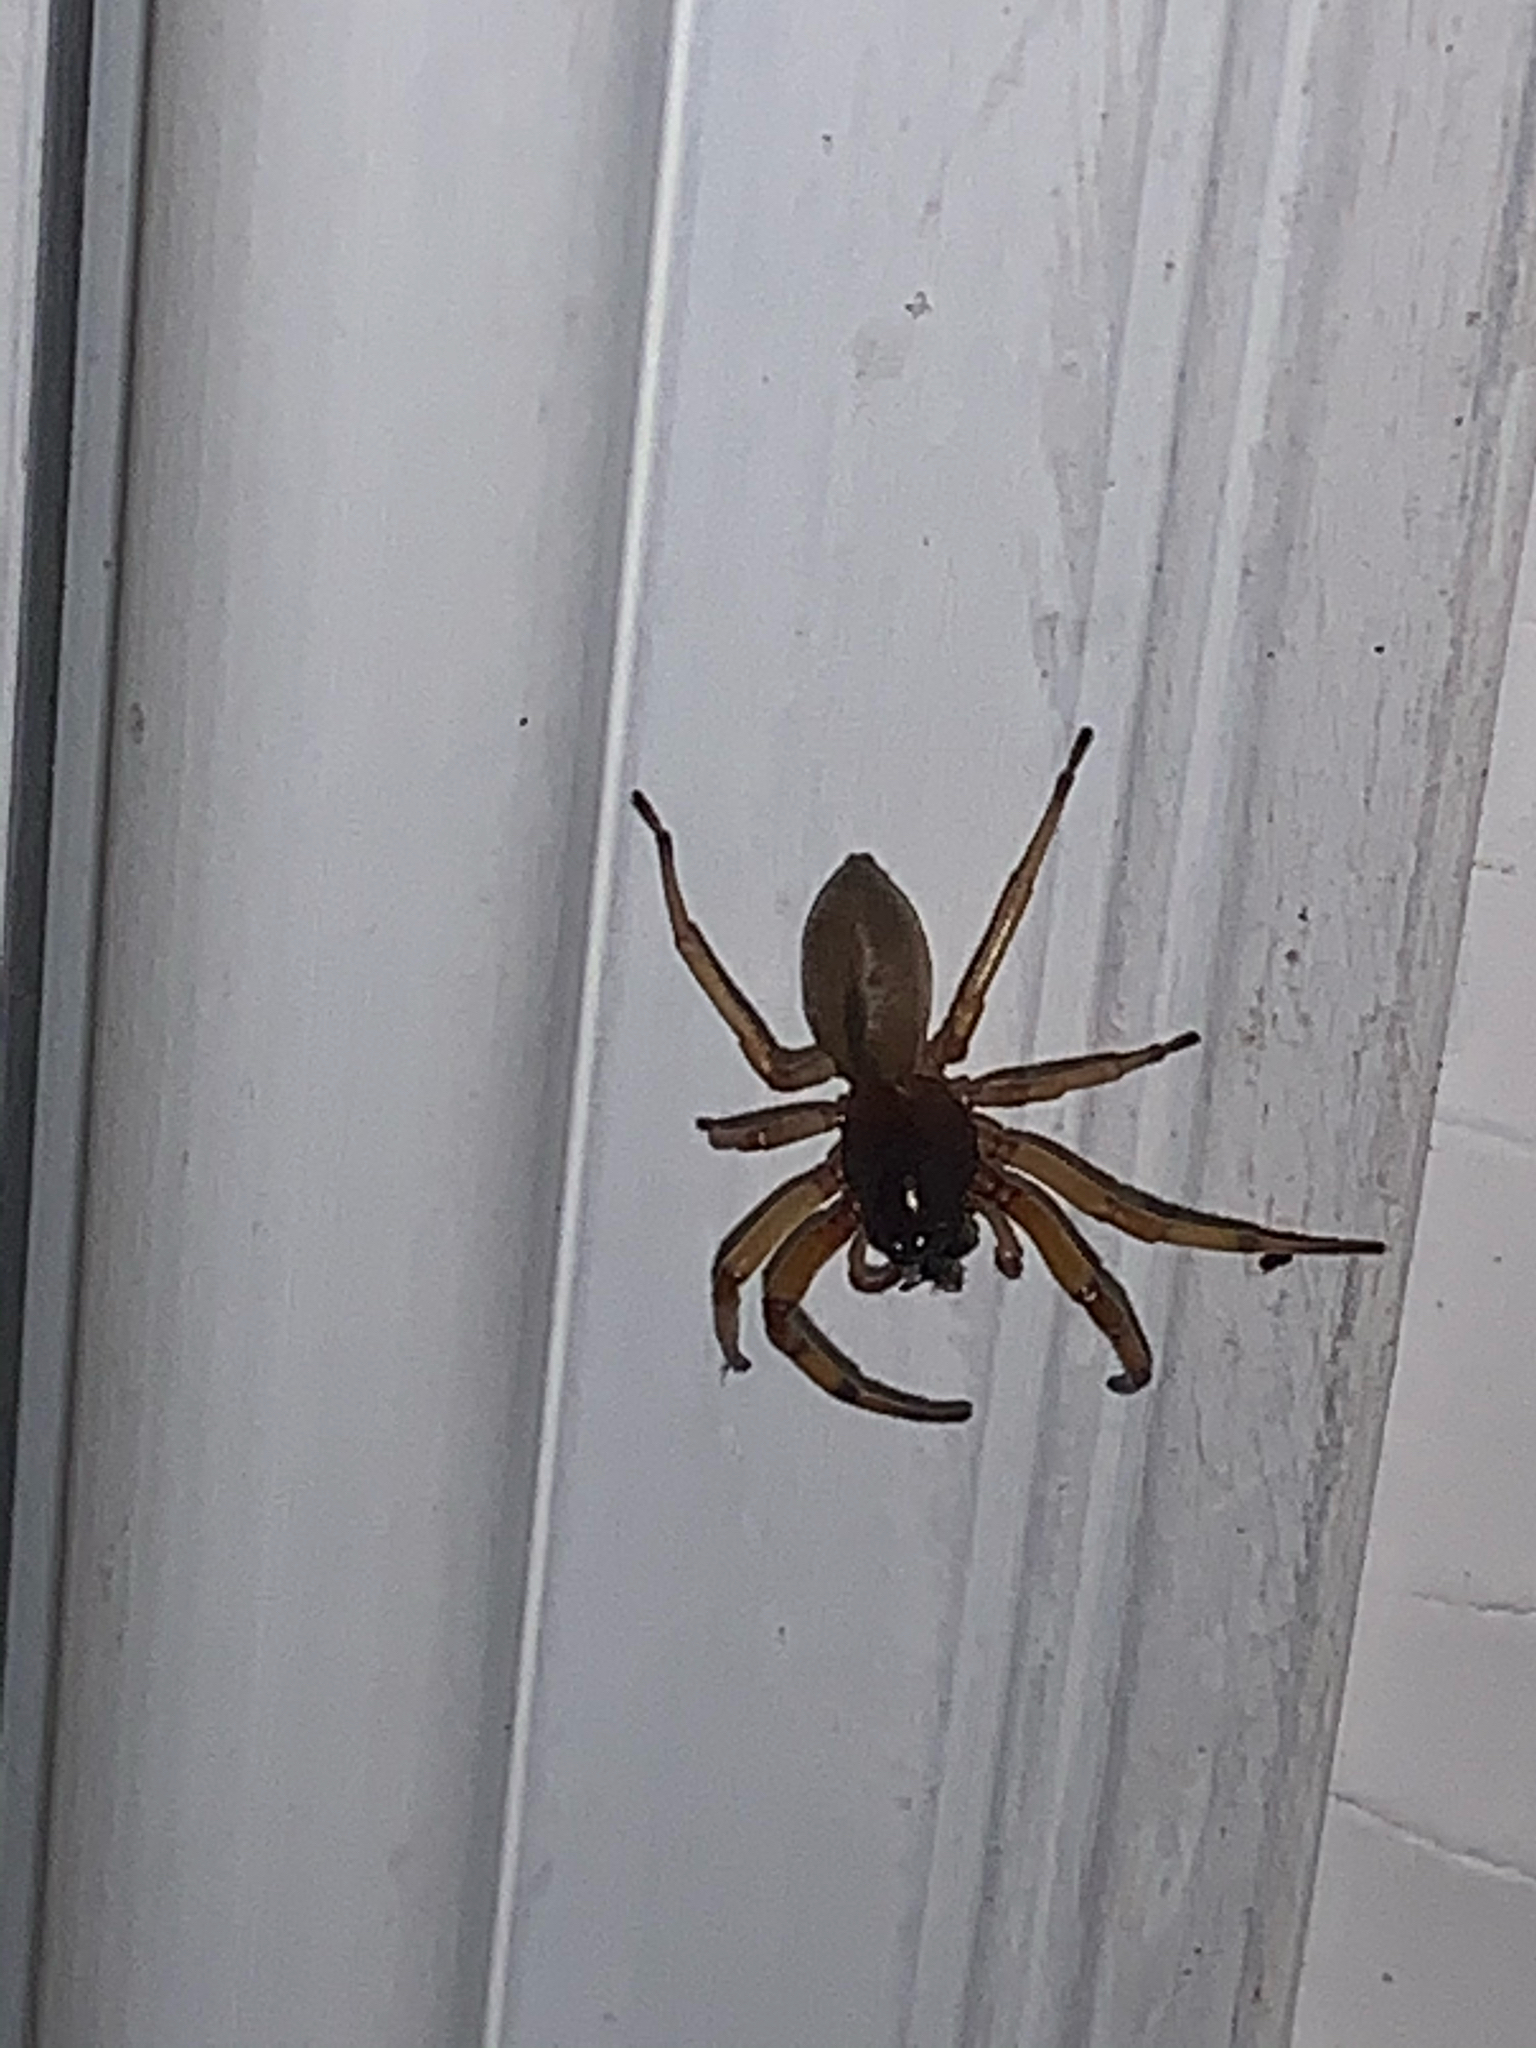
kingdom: Animalia
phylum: Arthropoda
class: Arachnida
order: Araneae
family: Trachelidae
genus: Trachelas
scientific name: Trachelas tranquillus
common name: Broad-faced sac spider
